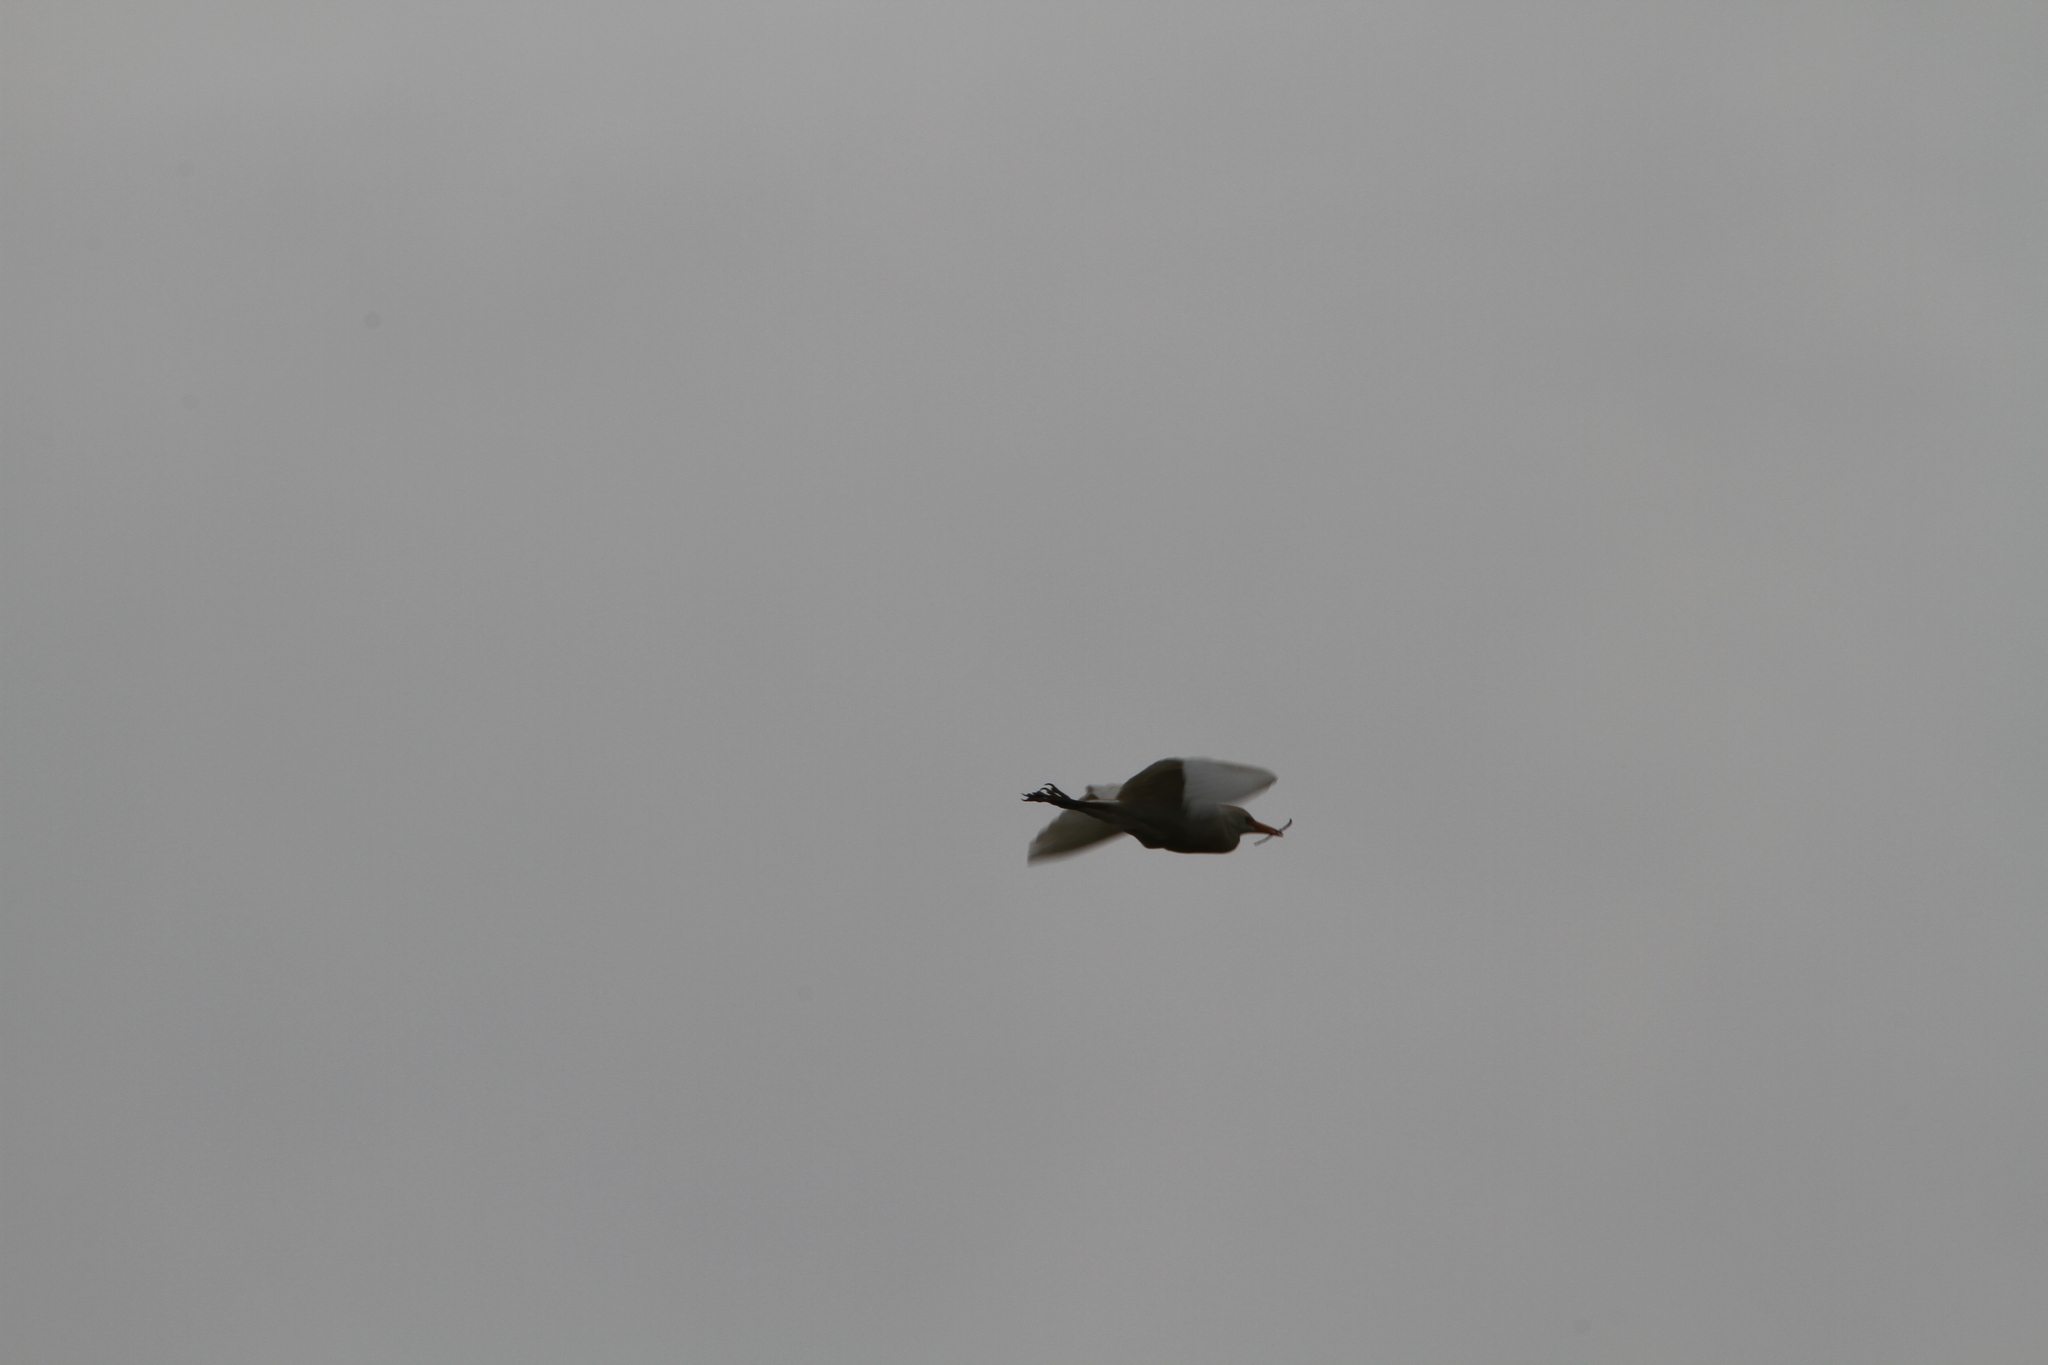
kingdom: Animalia
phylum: Chordata
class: Aves
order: Pelecaniformes
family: Ardeidae
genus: Bubulcus
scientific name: Bubulcus ibis
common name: Cattle egret
